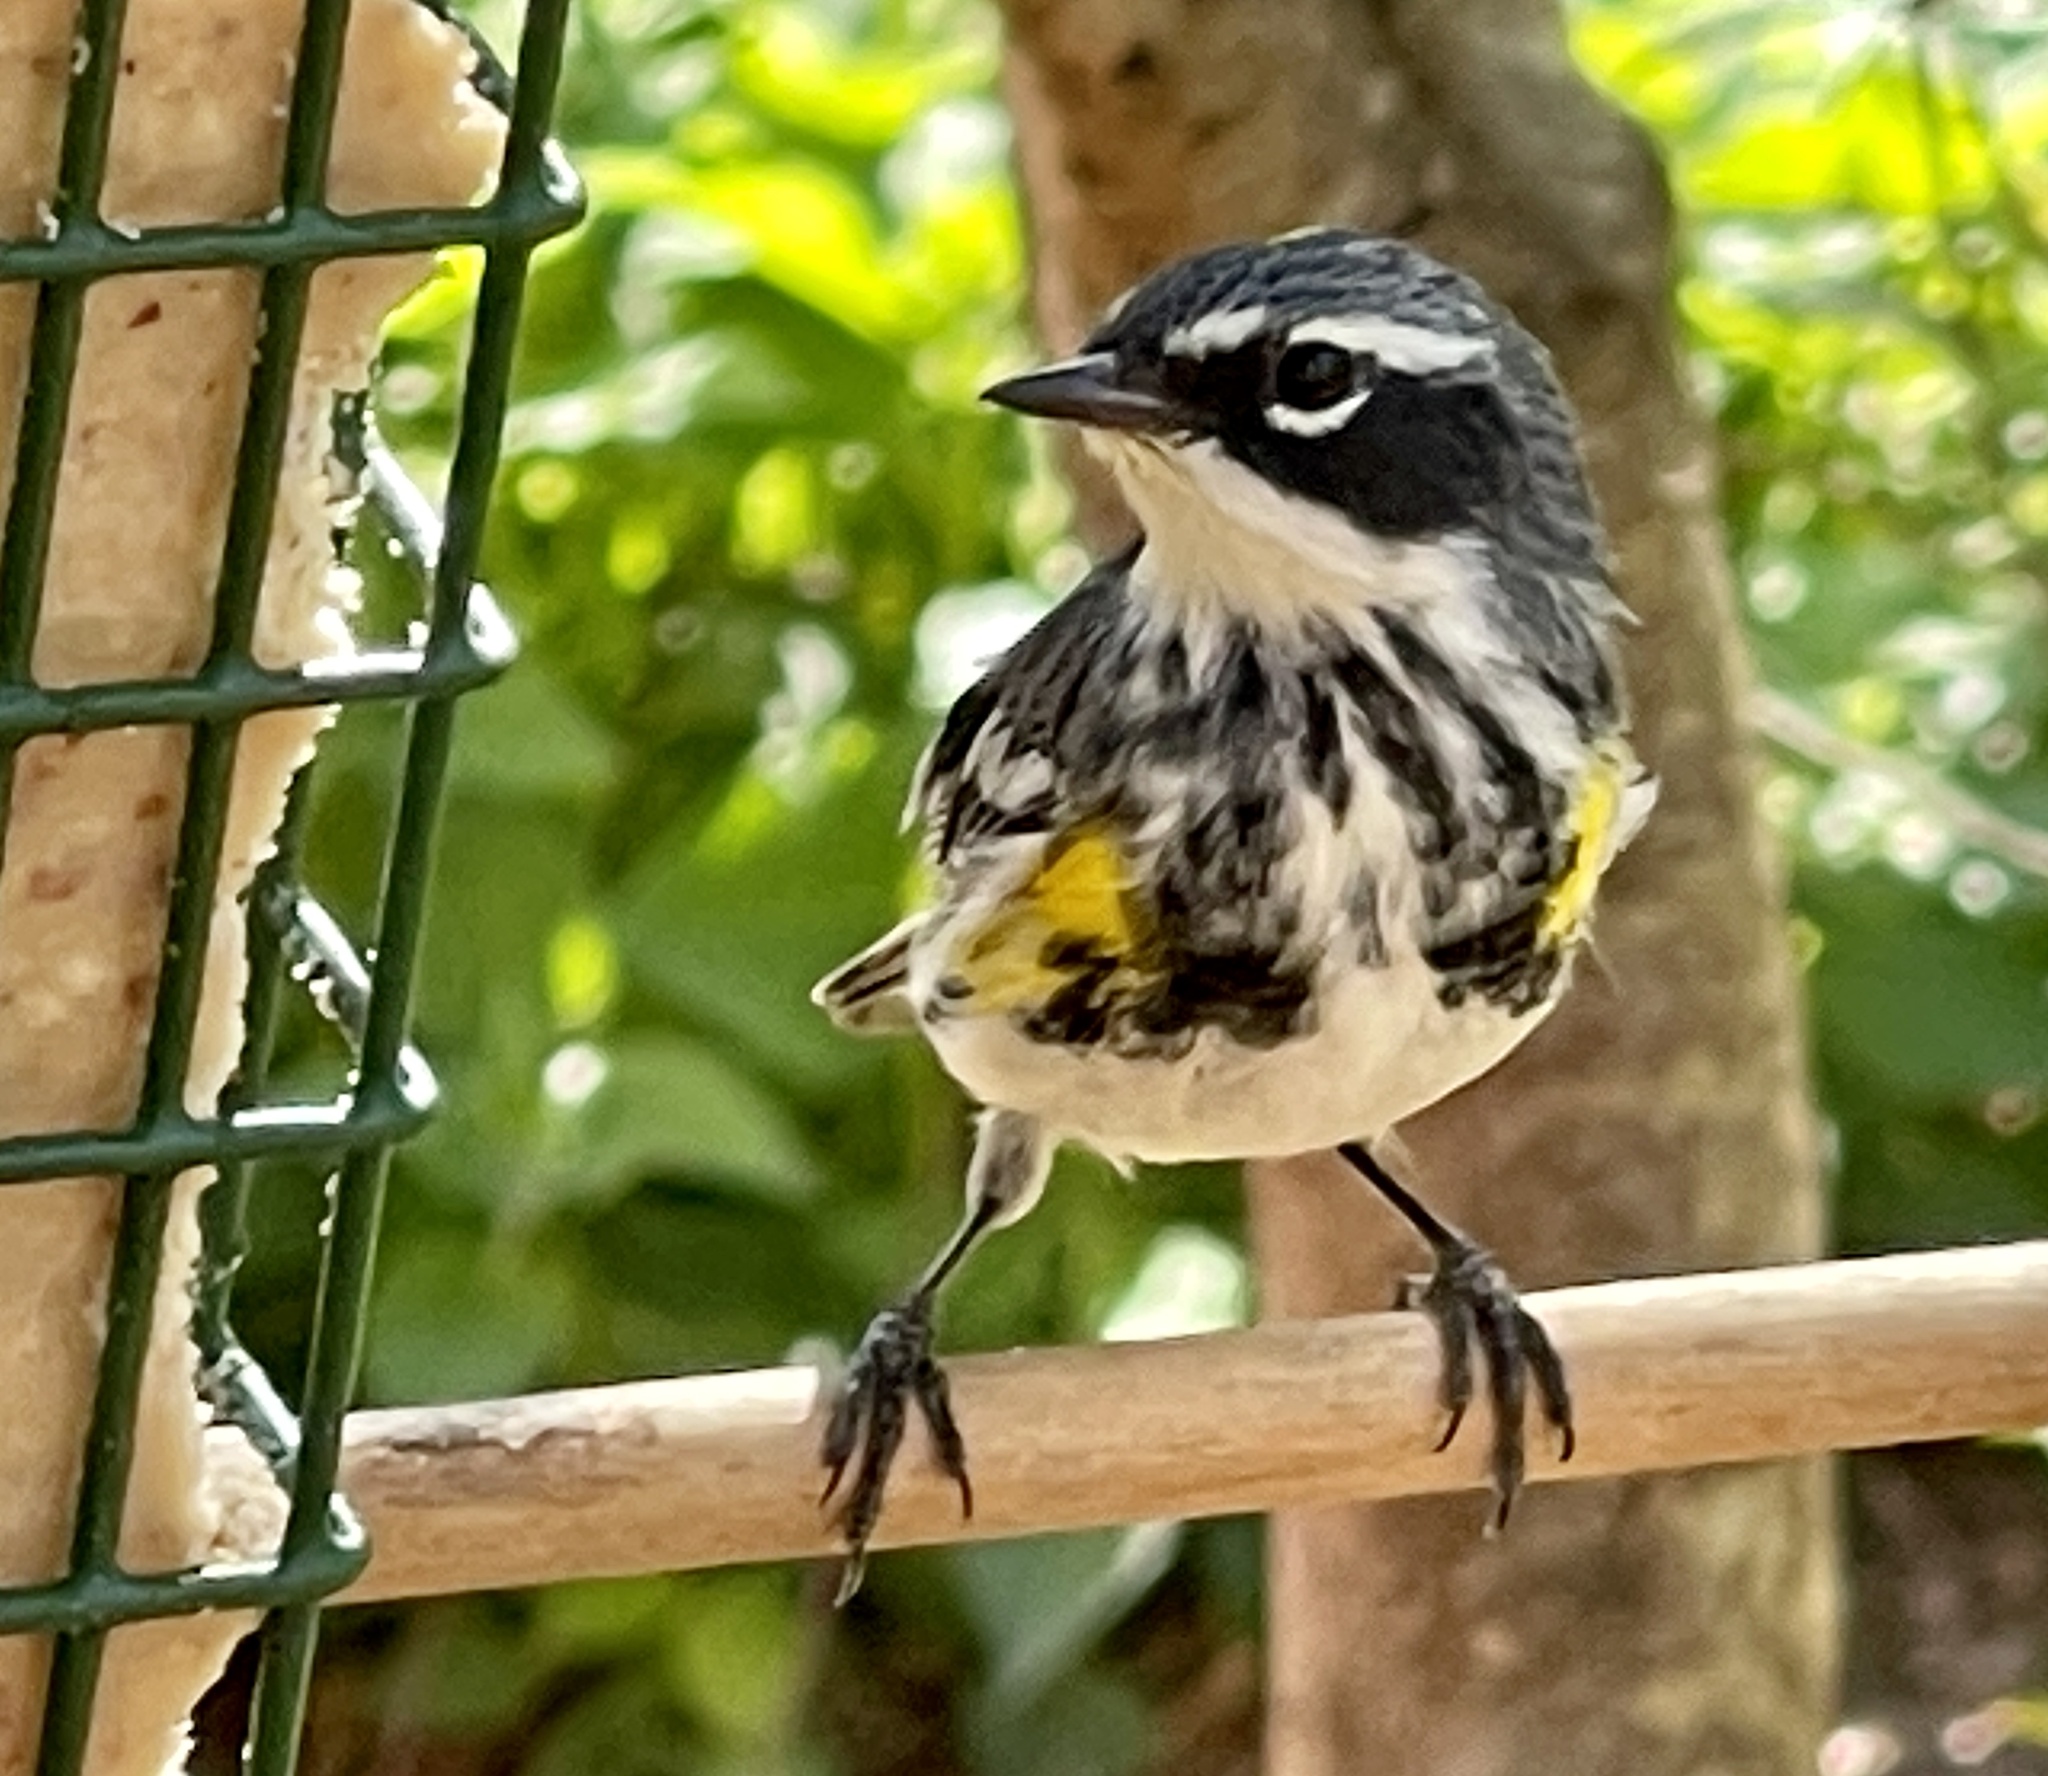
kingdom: Animalia
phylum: Chordata
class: Aves
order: Passeriformes
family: Parulidae
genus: Setophaga
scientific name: Setophaga coronata
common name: Myrtle warbler
